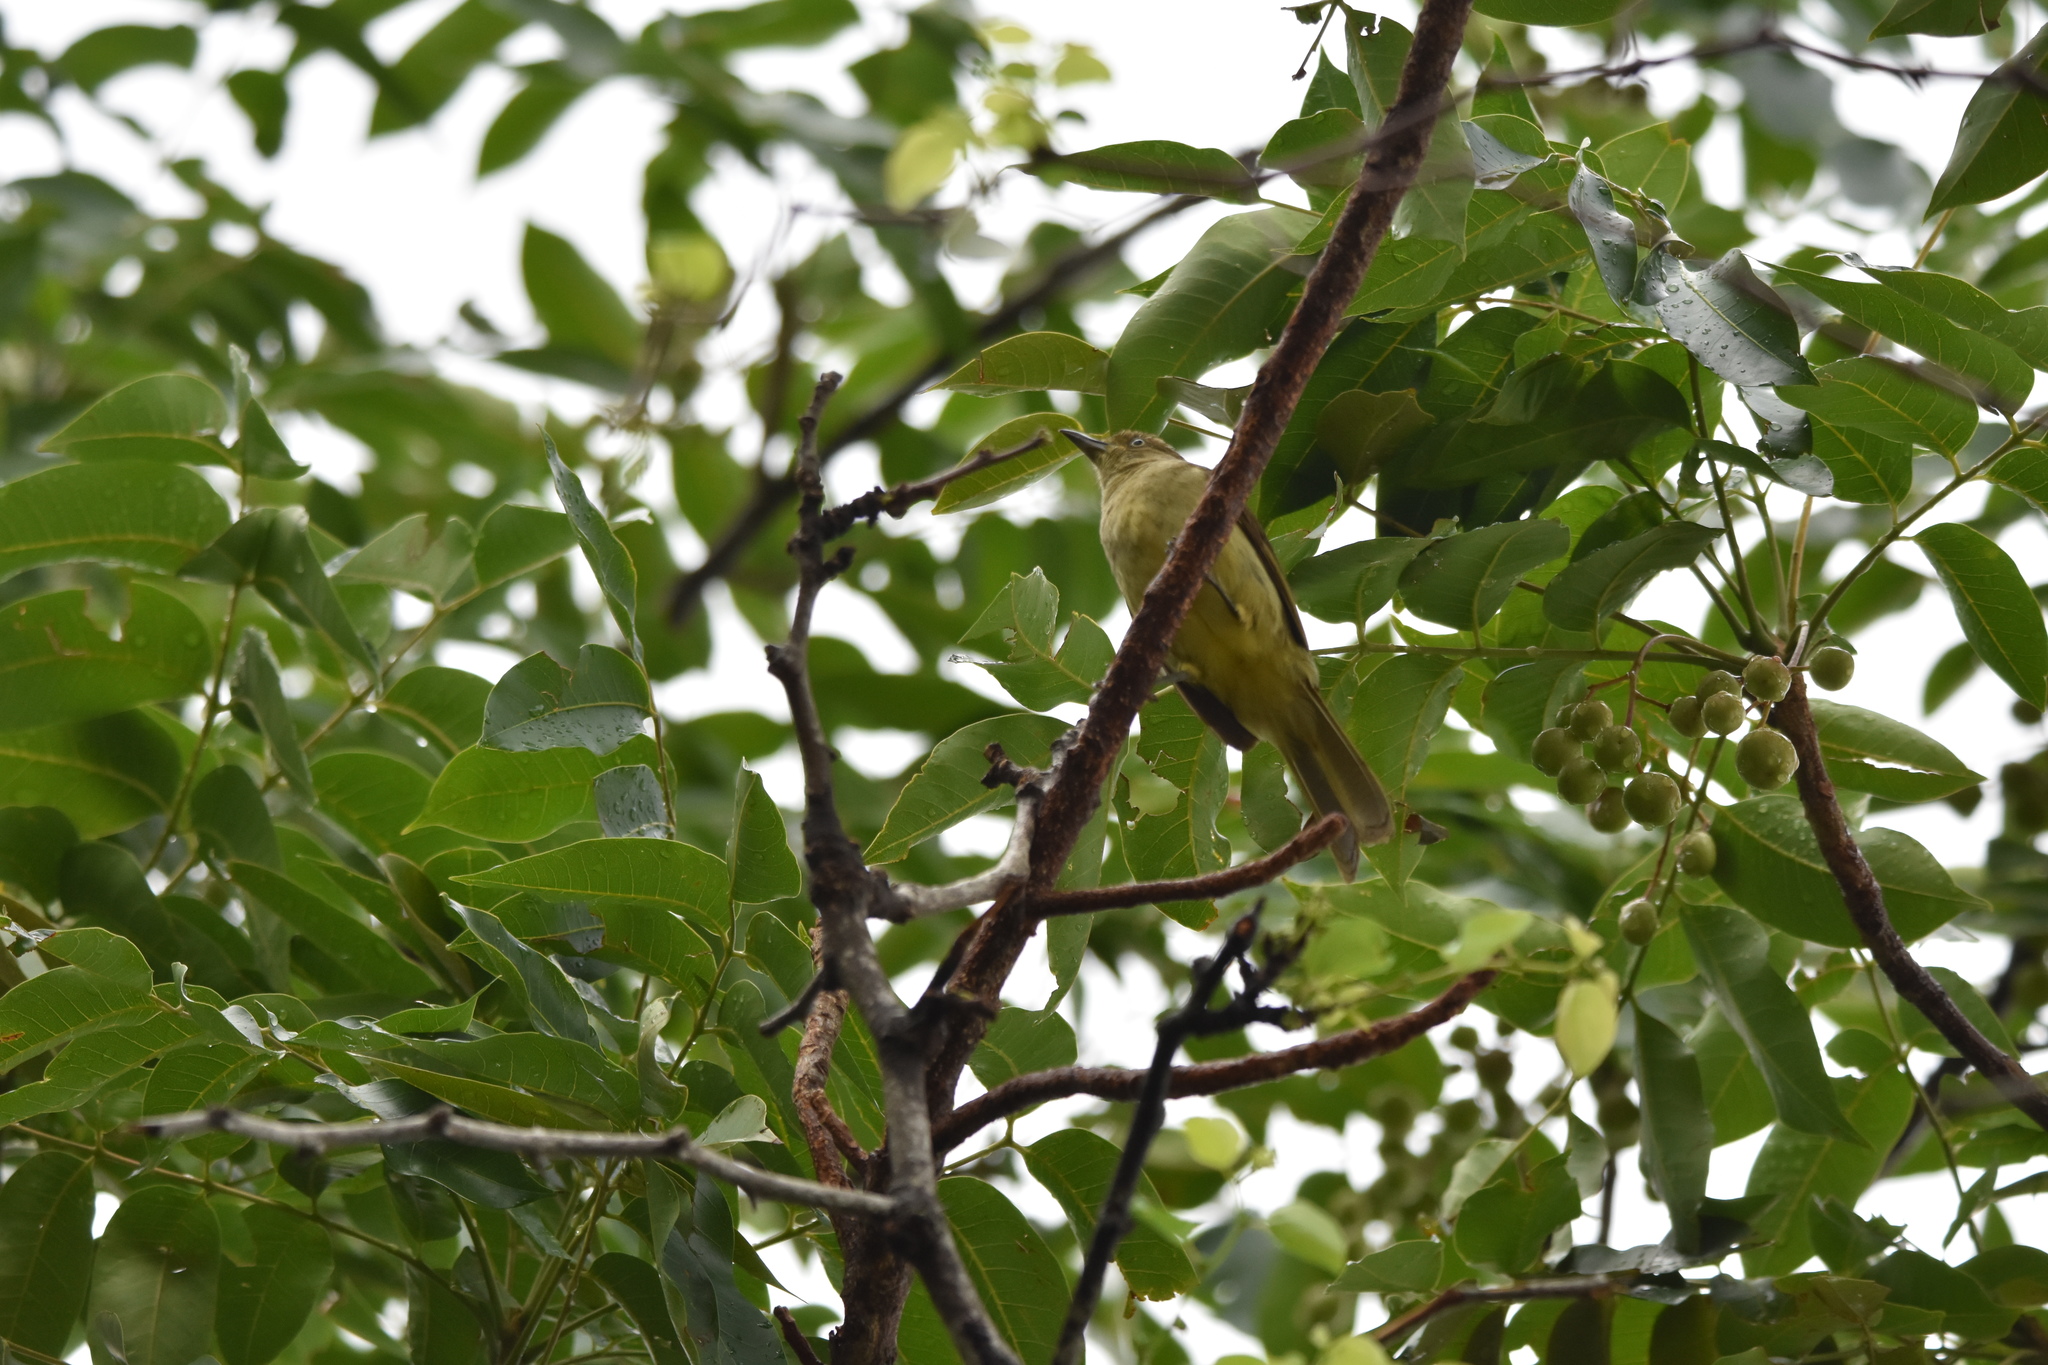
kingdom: Animalia
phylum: Chordata
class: Aves
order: Passeriformes
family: Pycnonotidae
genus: Andropadus
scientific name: Andropadus importunus
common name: Sombre greenbul
